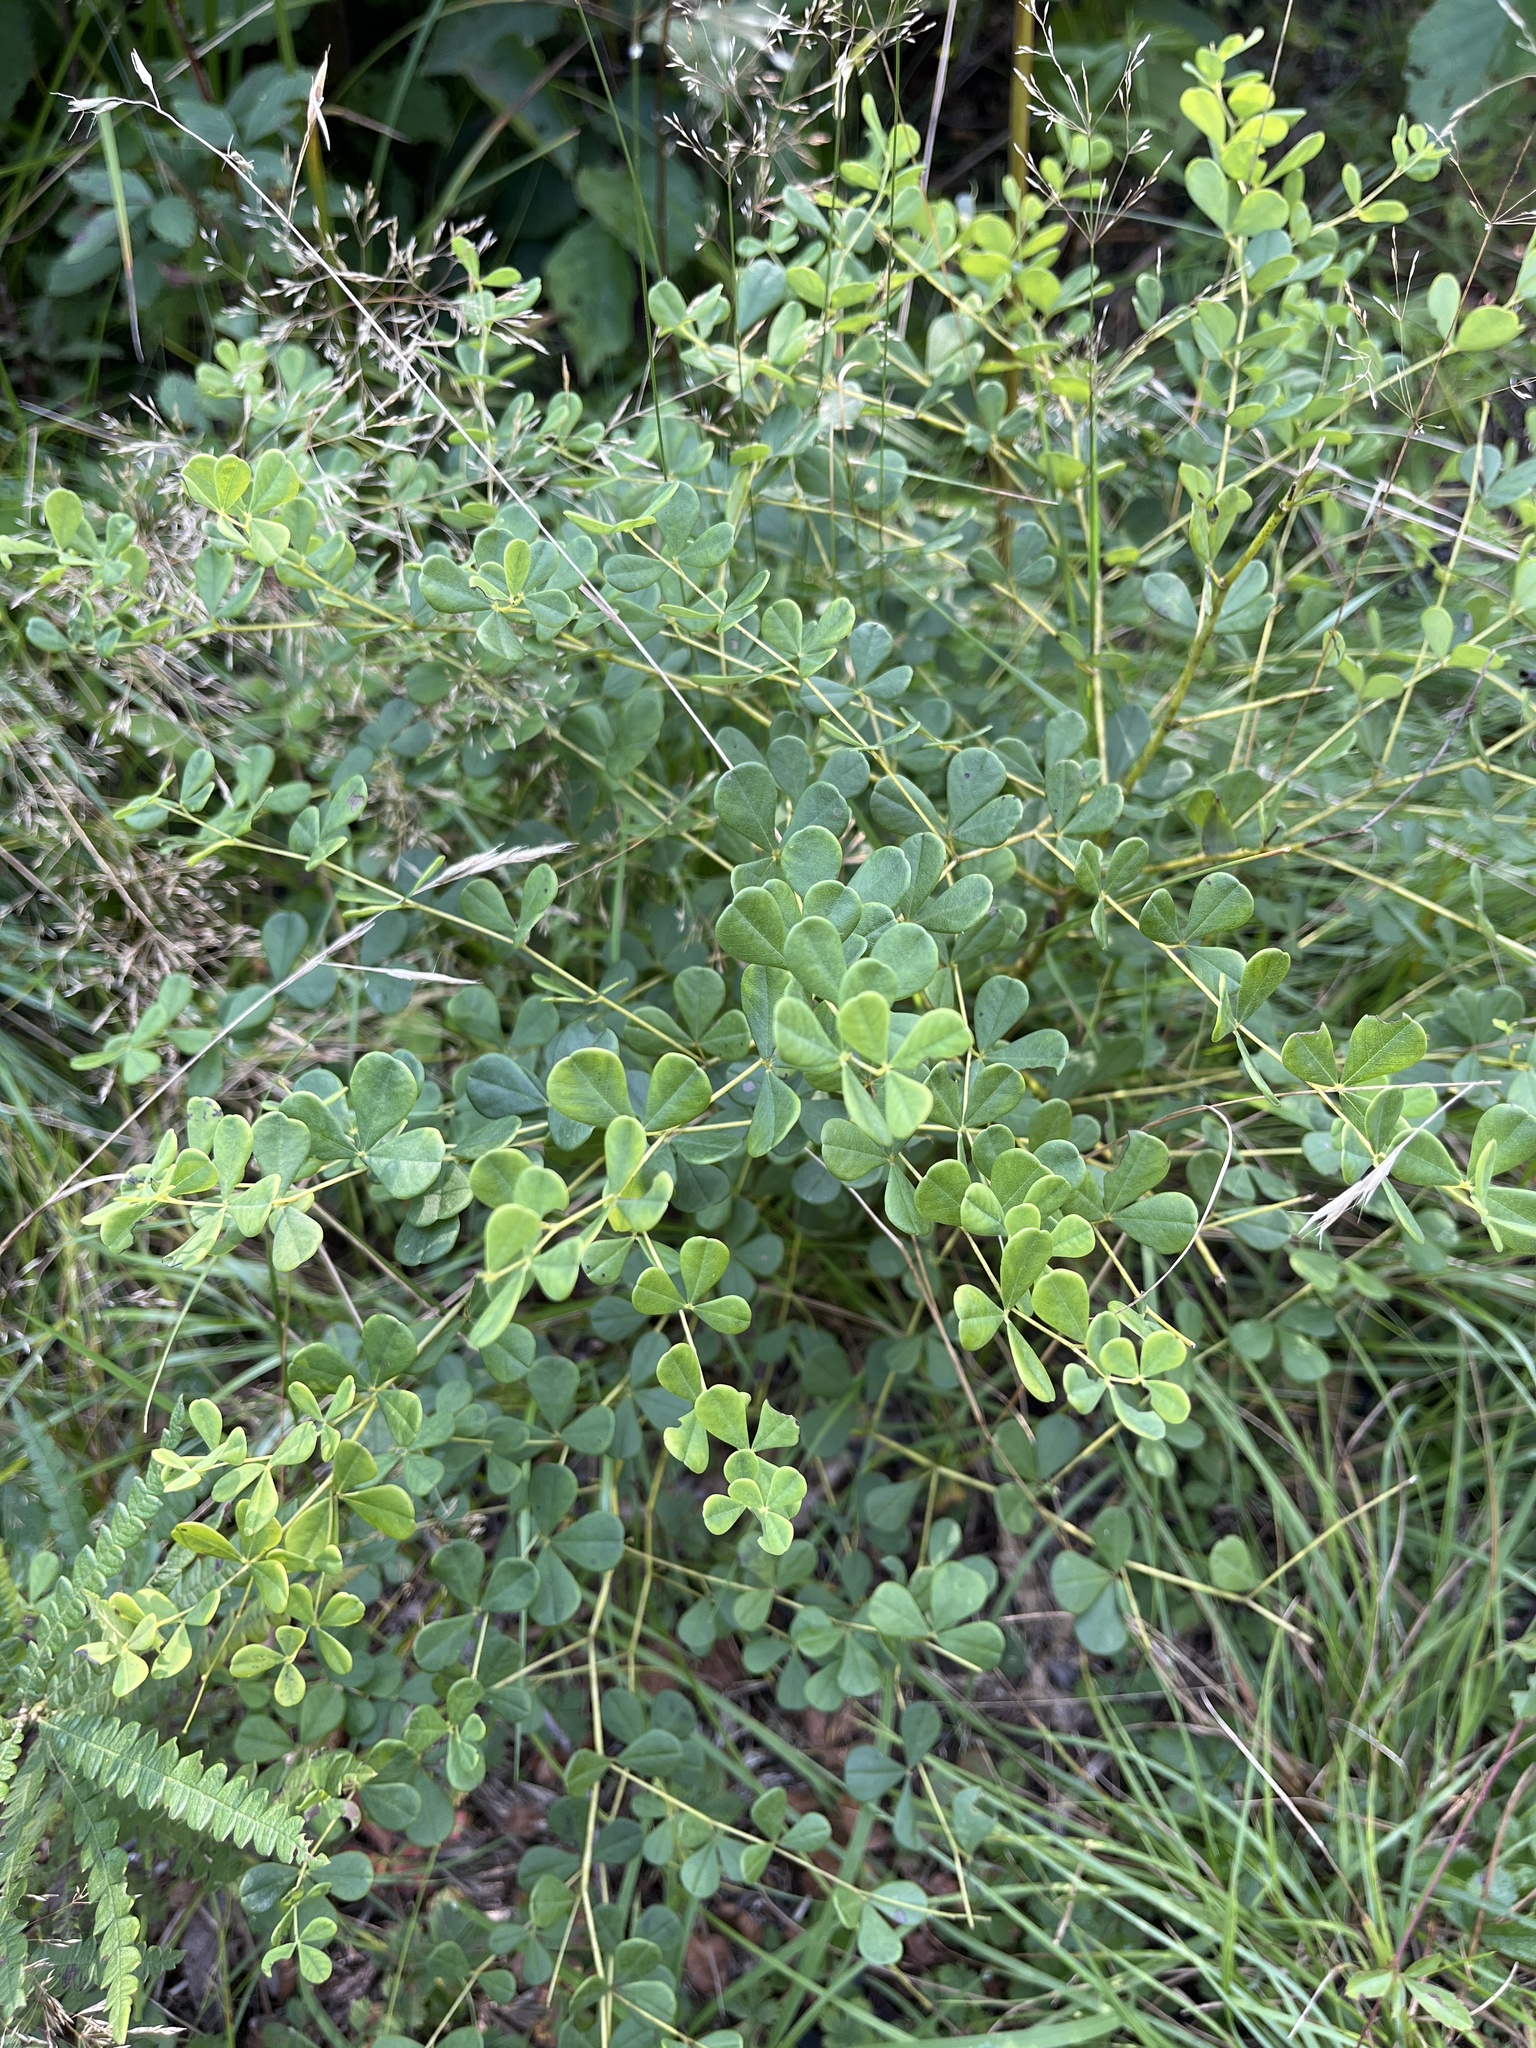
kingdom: Plantae
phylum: Tracheophyta
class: Magnoliopsida
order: Fabales
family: Fabaceae
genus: Baptisia
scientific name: Baptisia tinctoria
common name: Wild indigo
